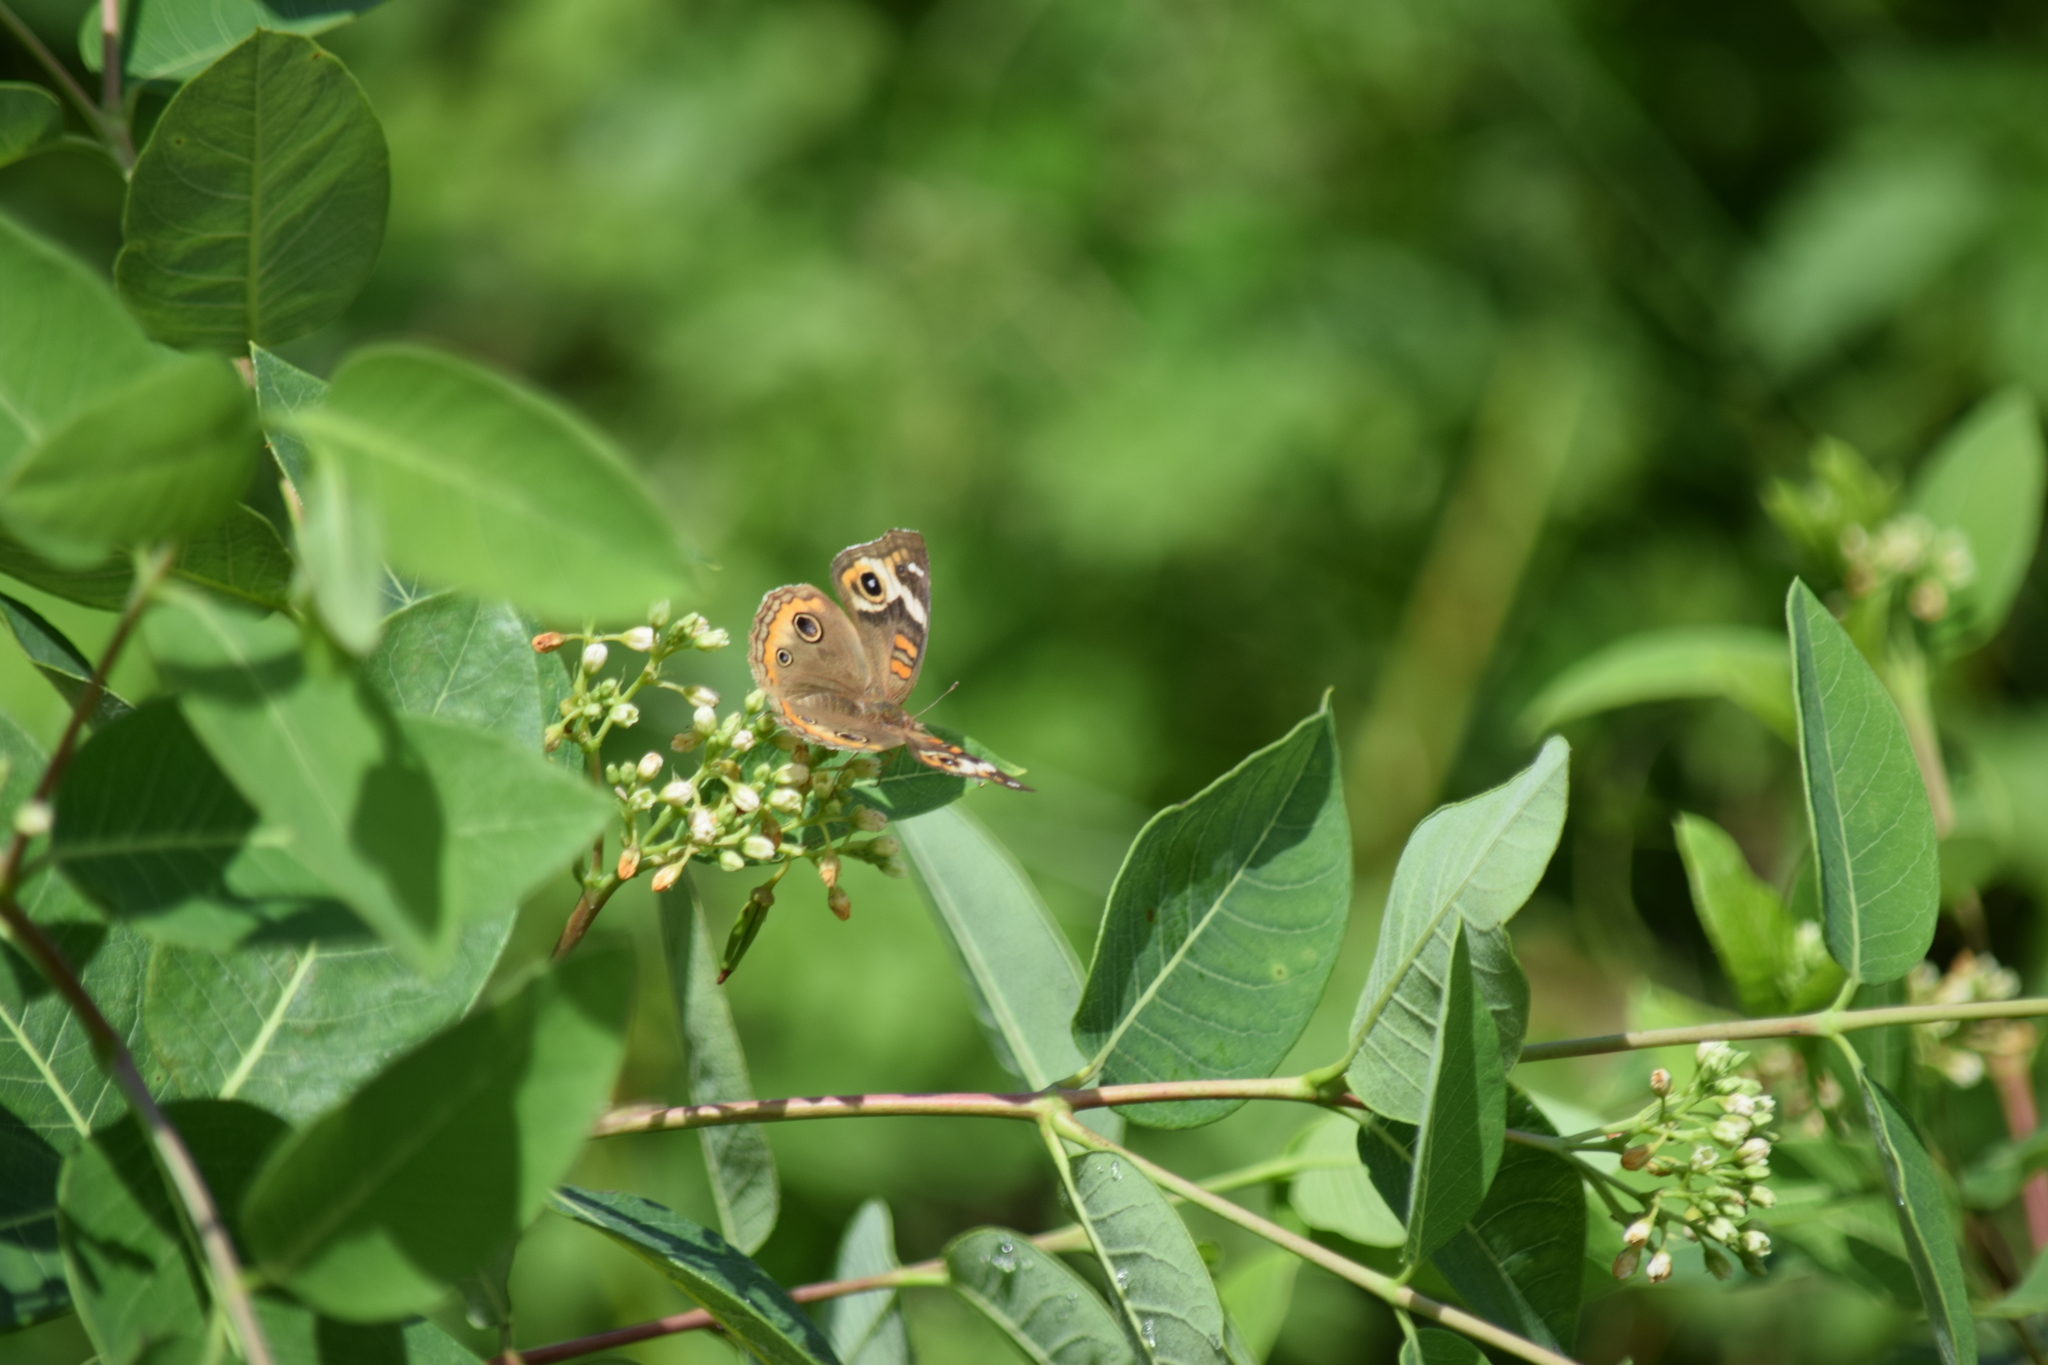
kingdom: Animalia
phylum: Arthropoda
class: Insecta
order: Lepidoptera
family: Nymphalidae
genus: Junonia
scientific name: Junonia coenia
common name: Common buckeye
